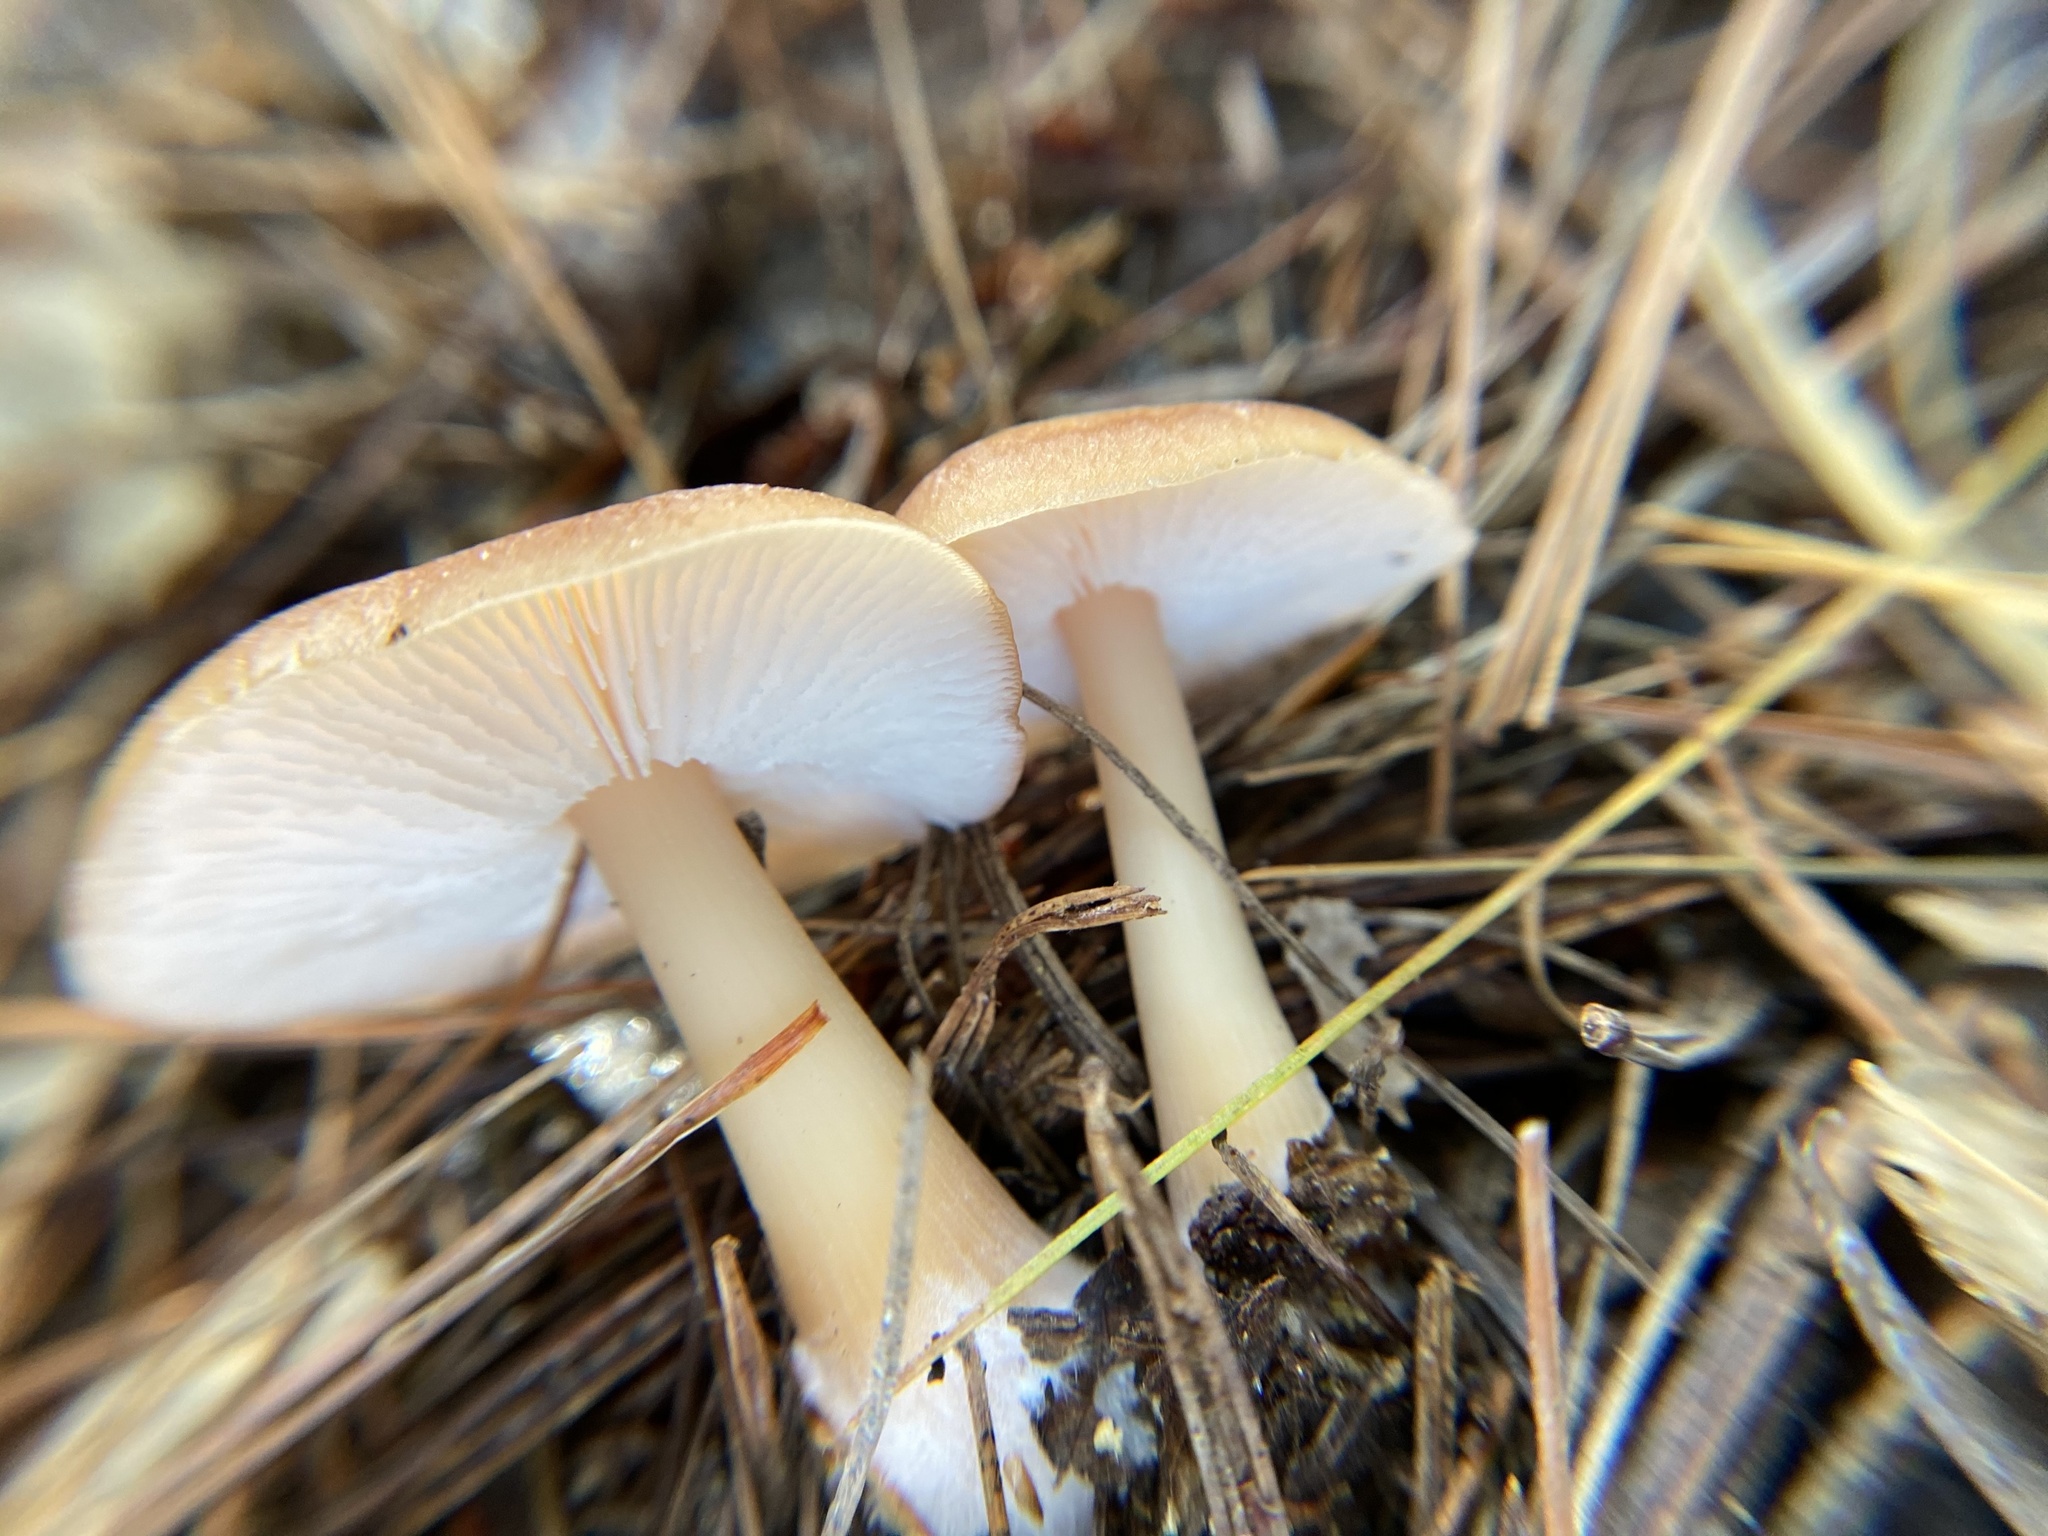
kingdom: Fungi
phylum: Basidiomycota
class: Agaricomycetes
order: Agaricales
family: Omphalotaceae
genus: Rhodocollybia
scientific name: Rhodocollybia butyracea
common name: Butter cap
